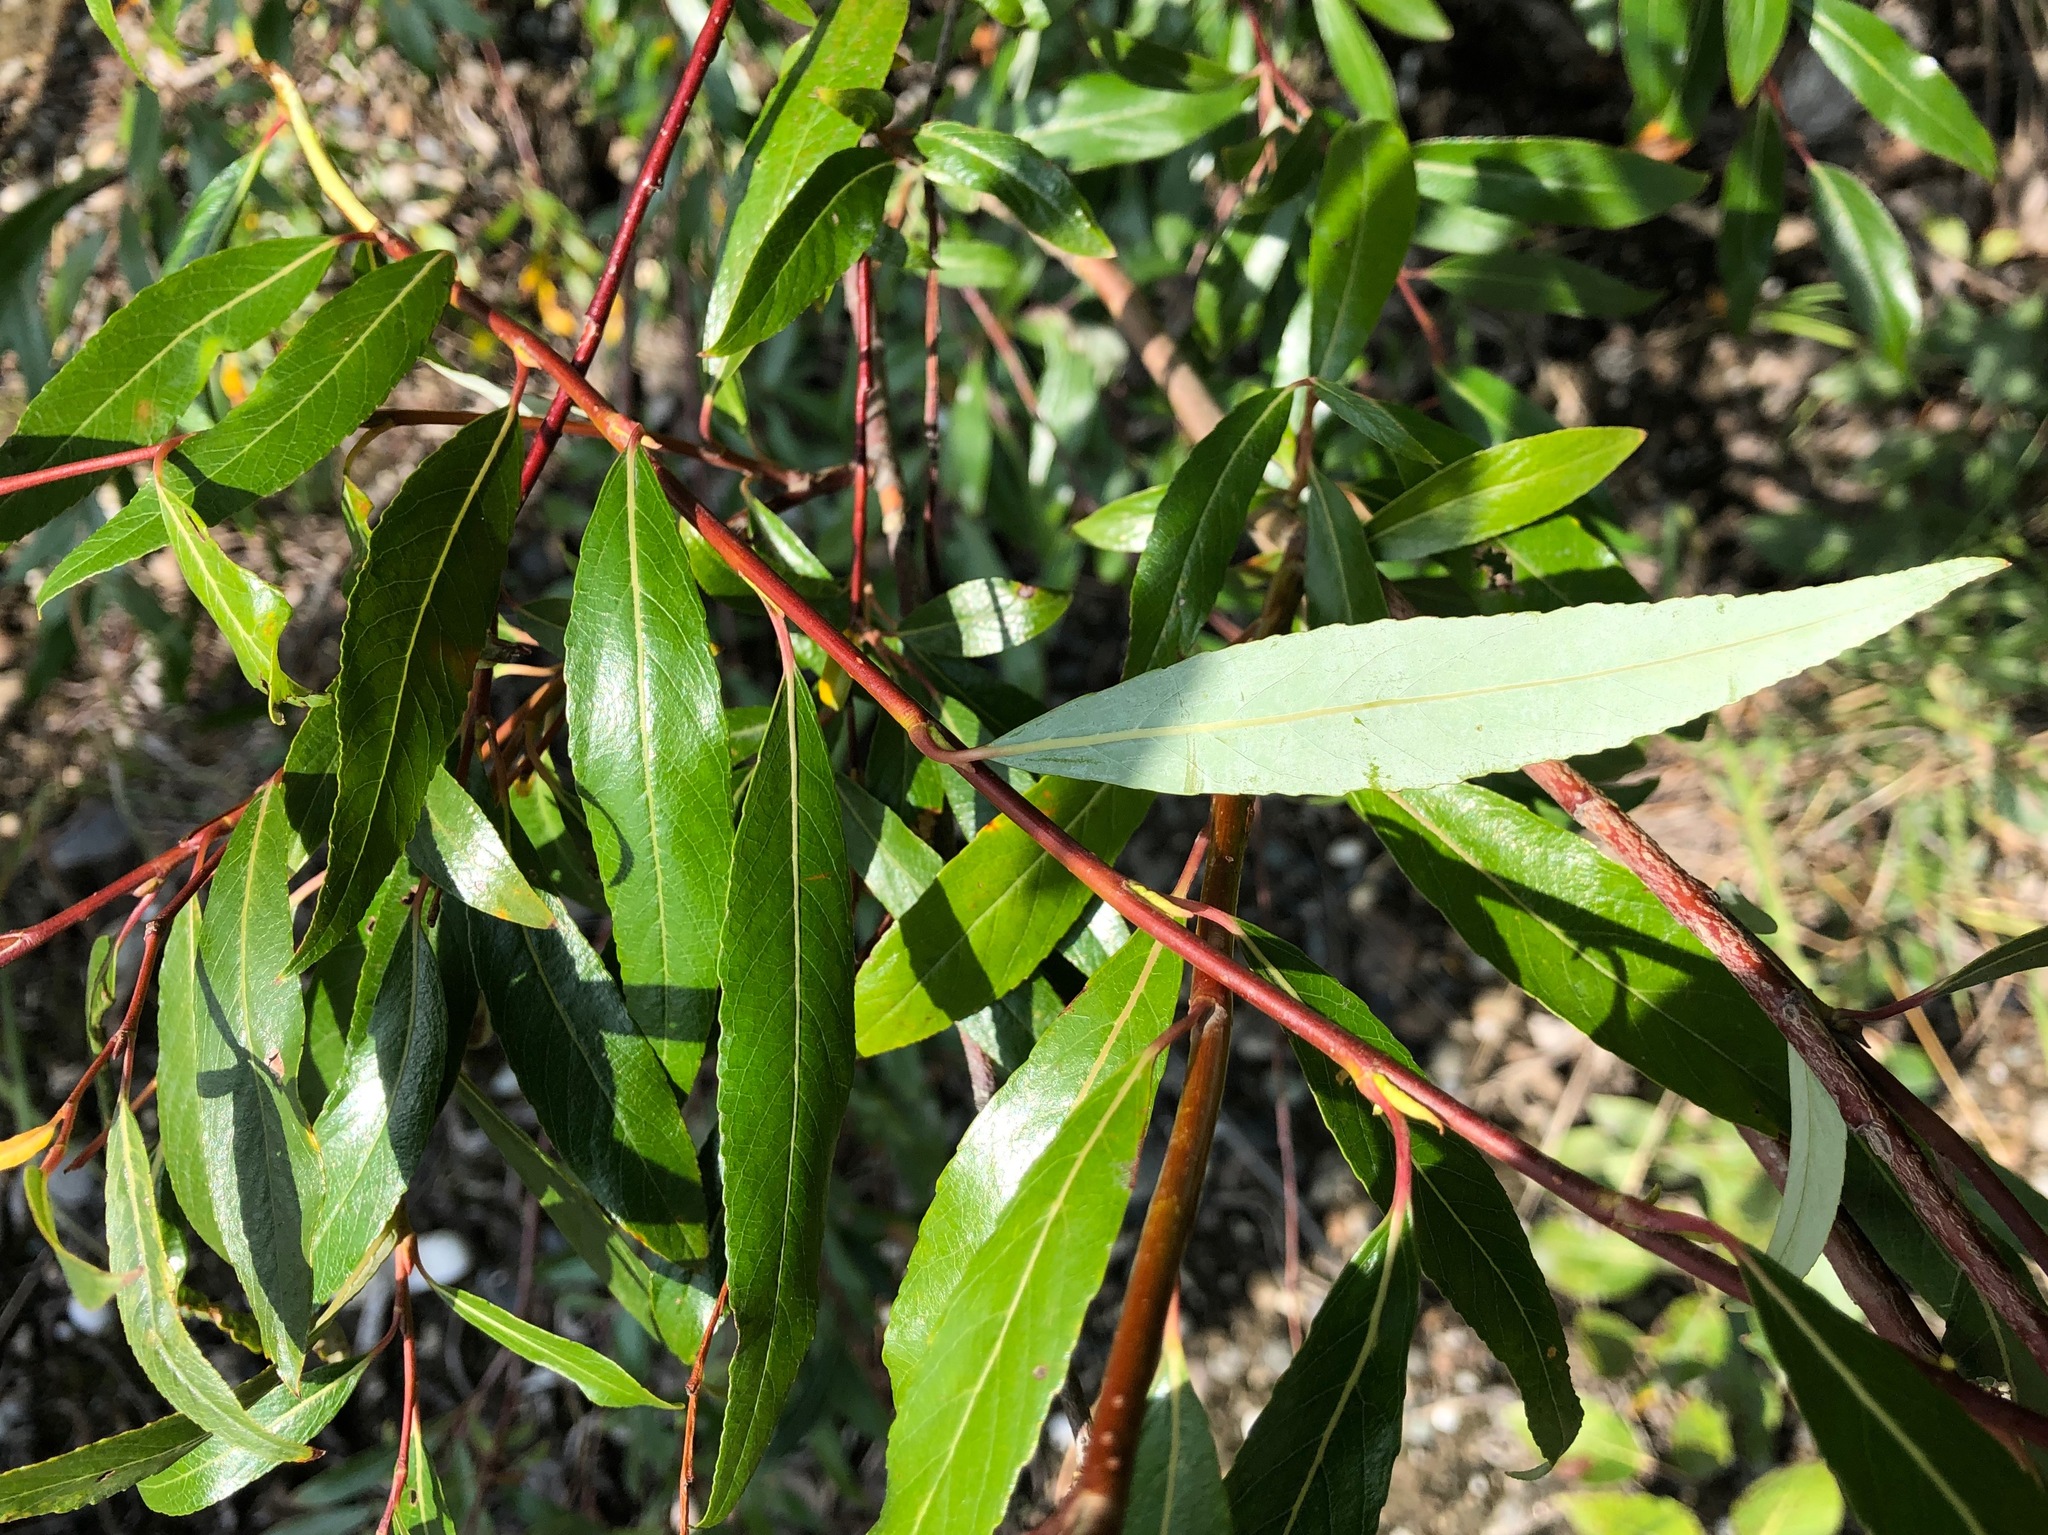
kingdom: Plantae
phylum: Tracheophyta
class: Magnoliopsida
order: Malpighiales
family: Salicaceae
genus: Salix
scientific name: Salix arbusculoides
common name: Little-tree willow
